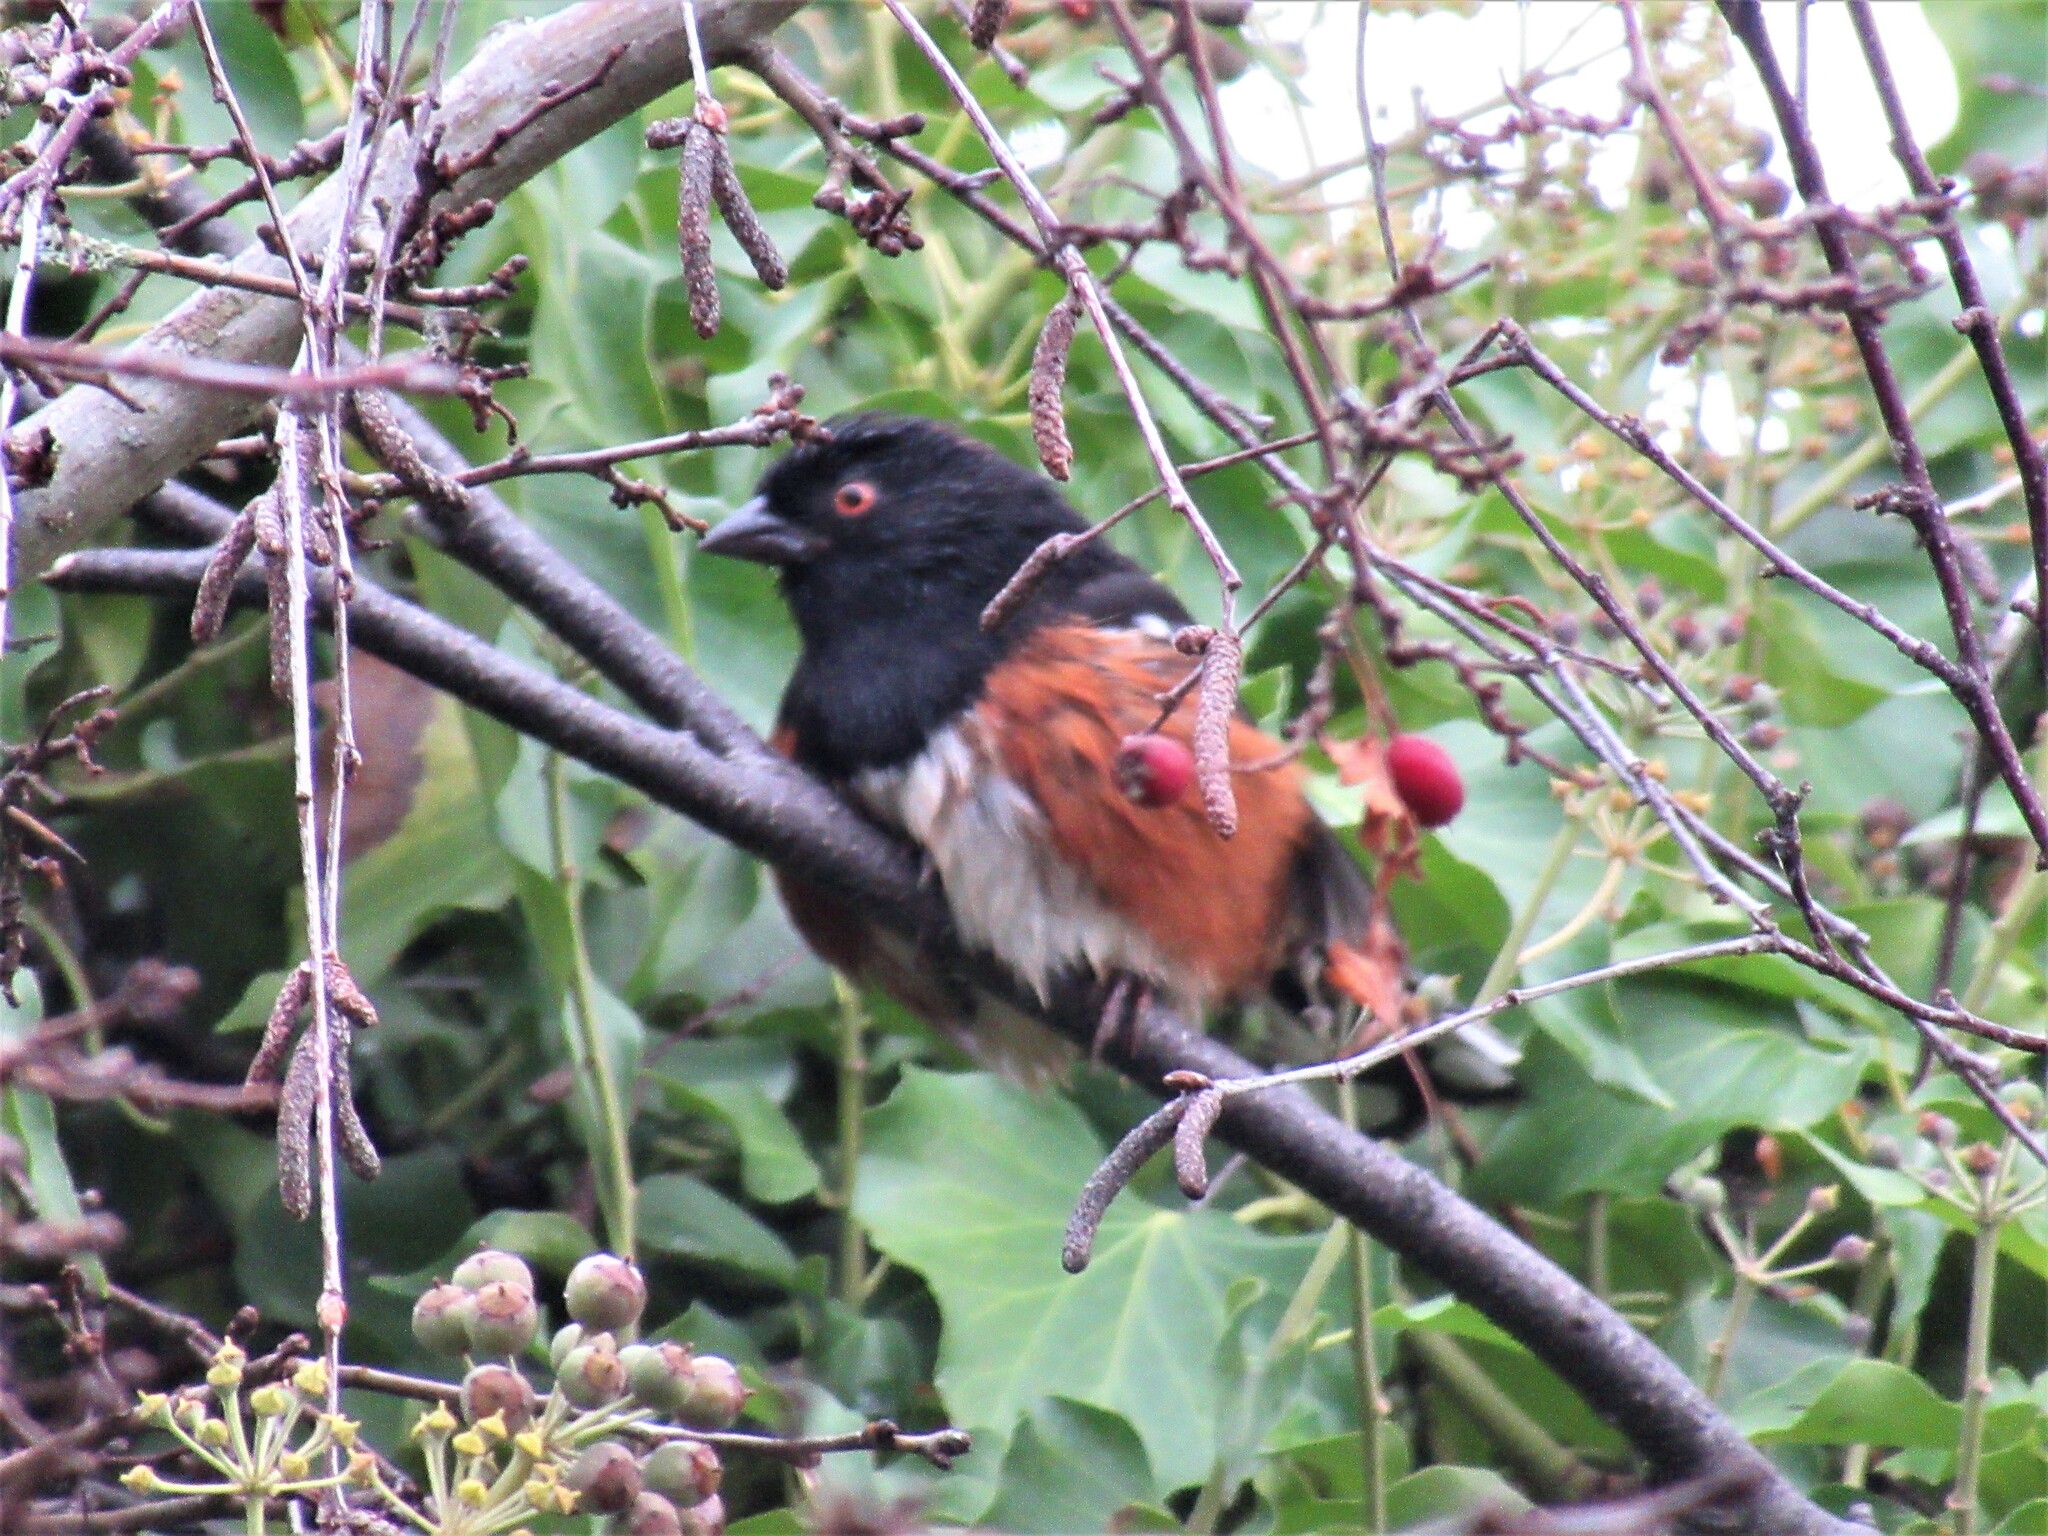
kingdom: Animalia
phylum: Chordata
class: Aves
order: Passeriformes
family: Passerellidae
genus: Pipilo
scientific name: Pipilo maculatus
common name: Spotted towhee
